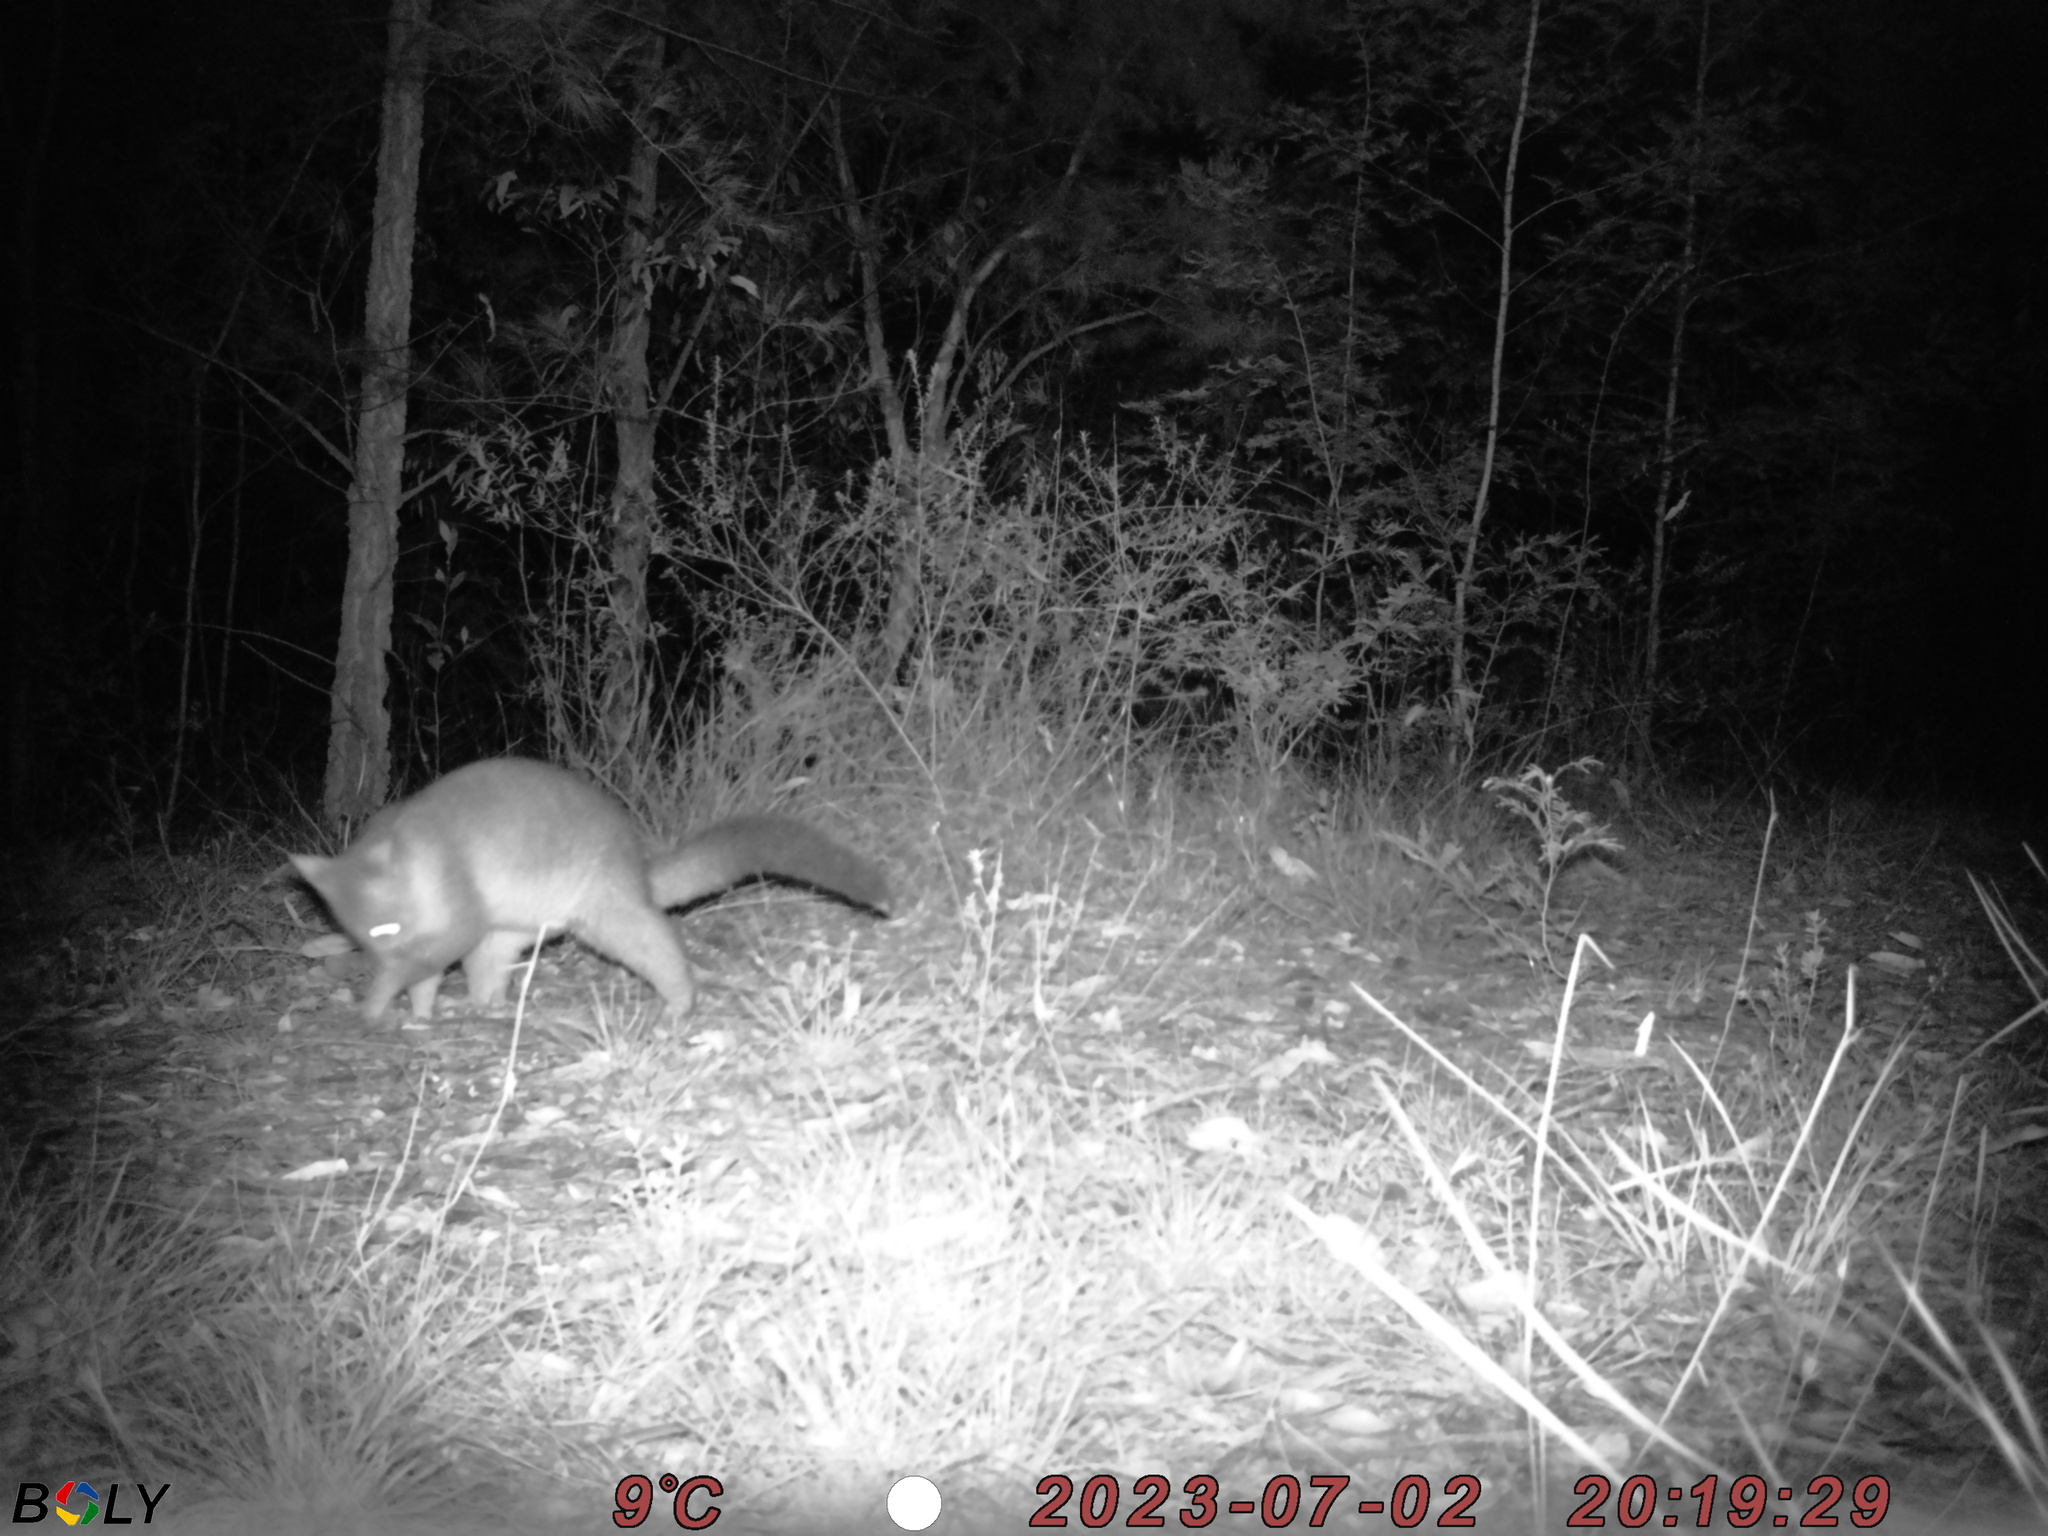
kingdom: Animalia
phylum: Chordata
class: Mammalia
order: Diprotodontia
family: Phalangeridae
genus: Trichosurus
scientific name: Trichosurus vulpecula
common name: Common brushtail
